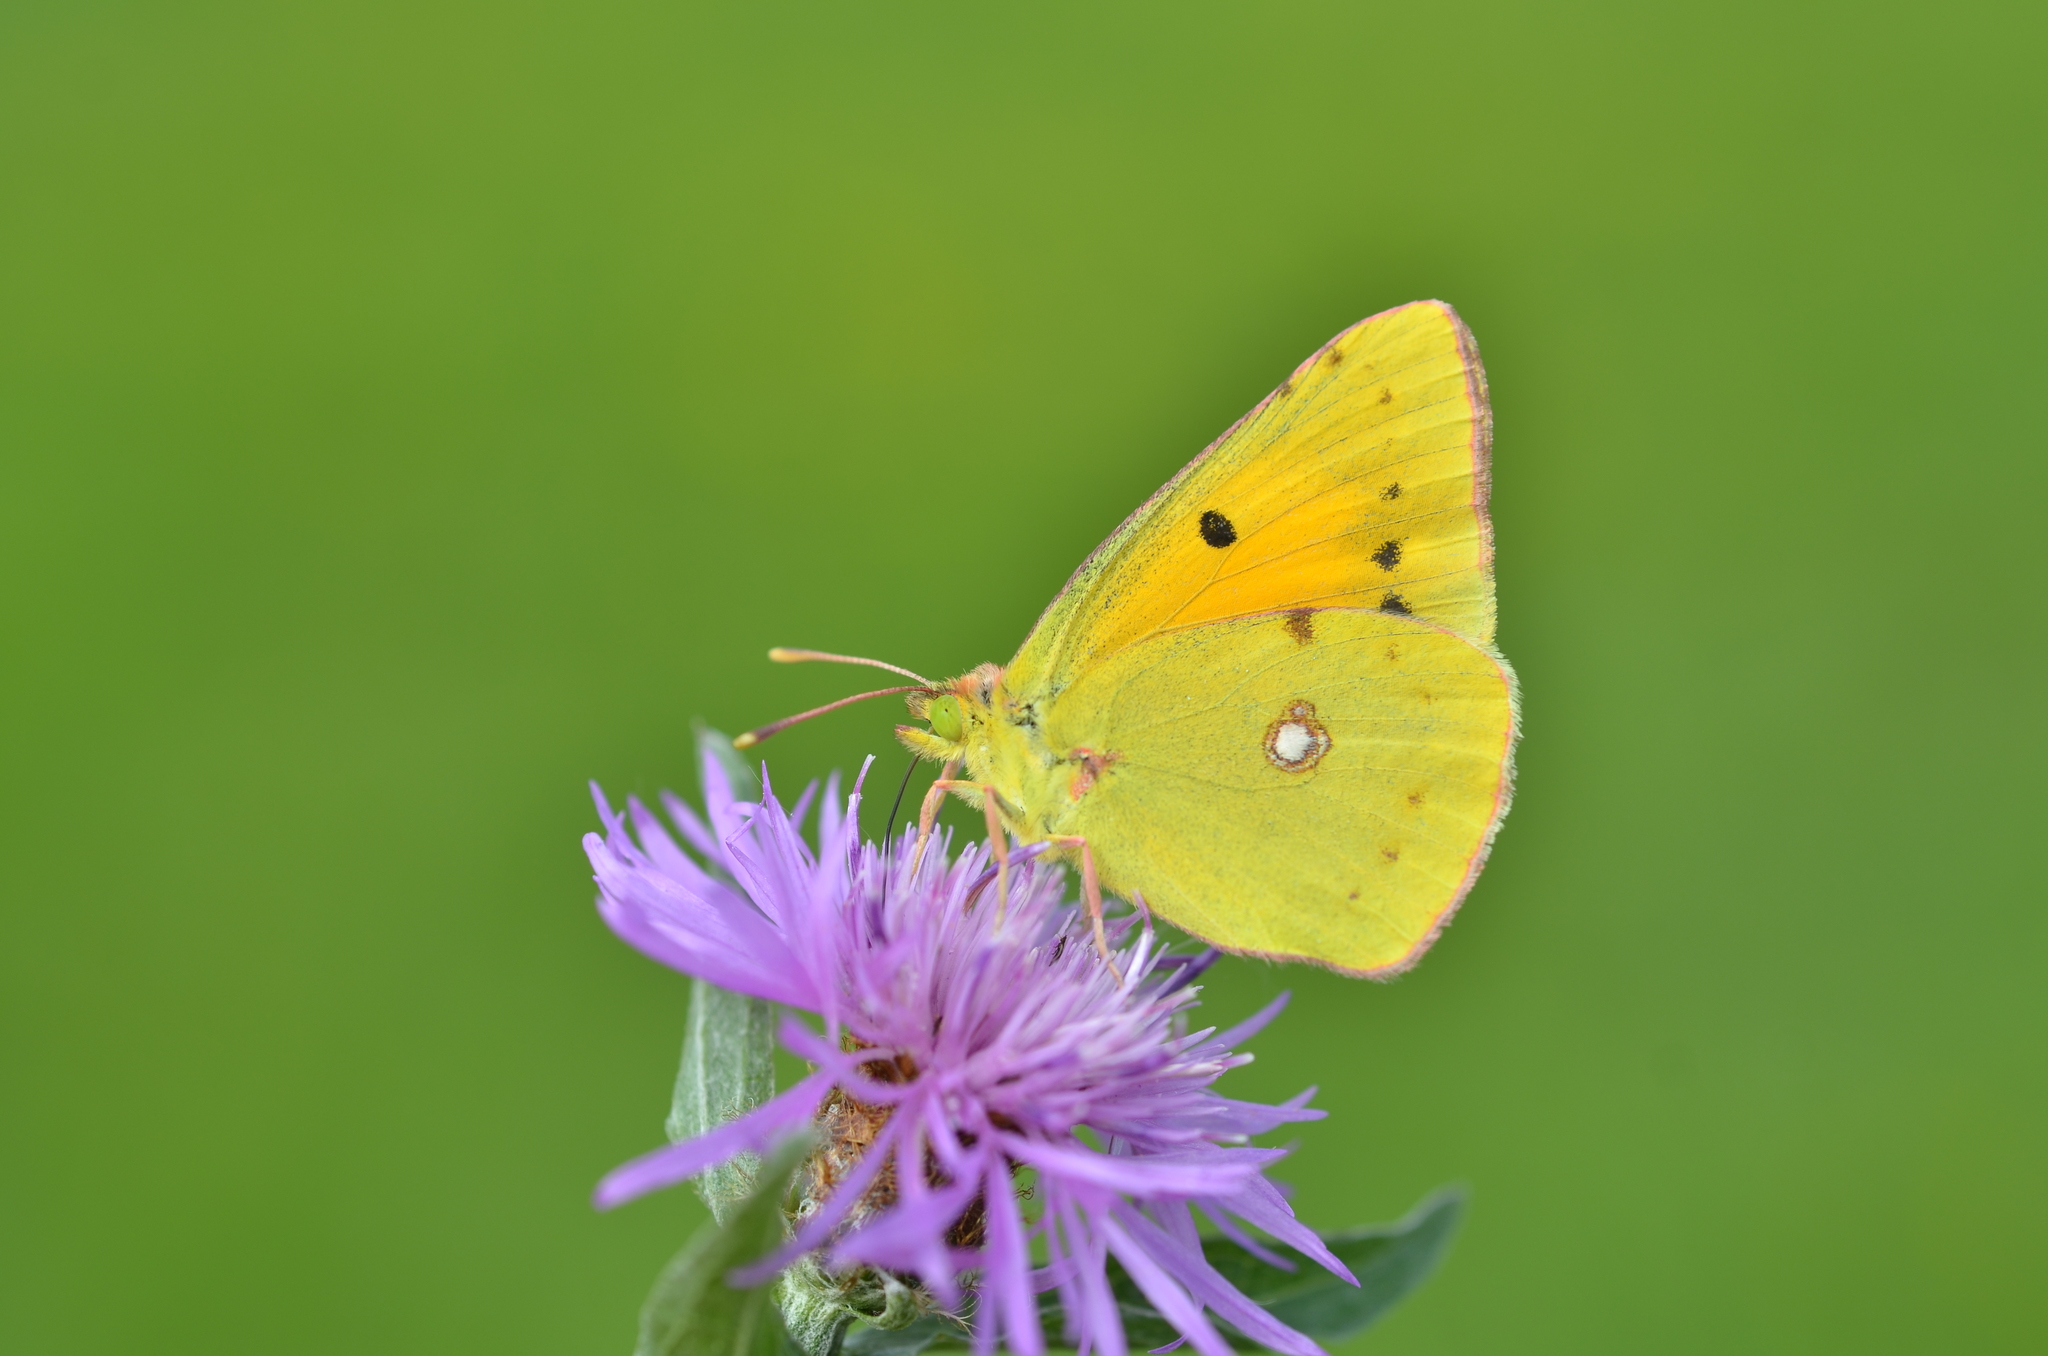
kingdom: Animalia
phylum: Arthropoda
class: Insecta
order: Lepidoptera
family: Pieridae
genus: Colias
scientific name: Colias croceus
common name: Clouded yellow
